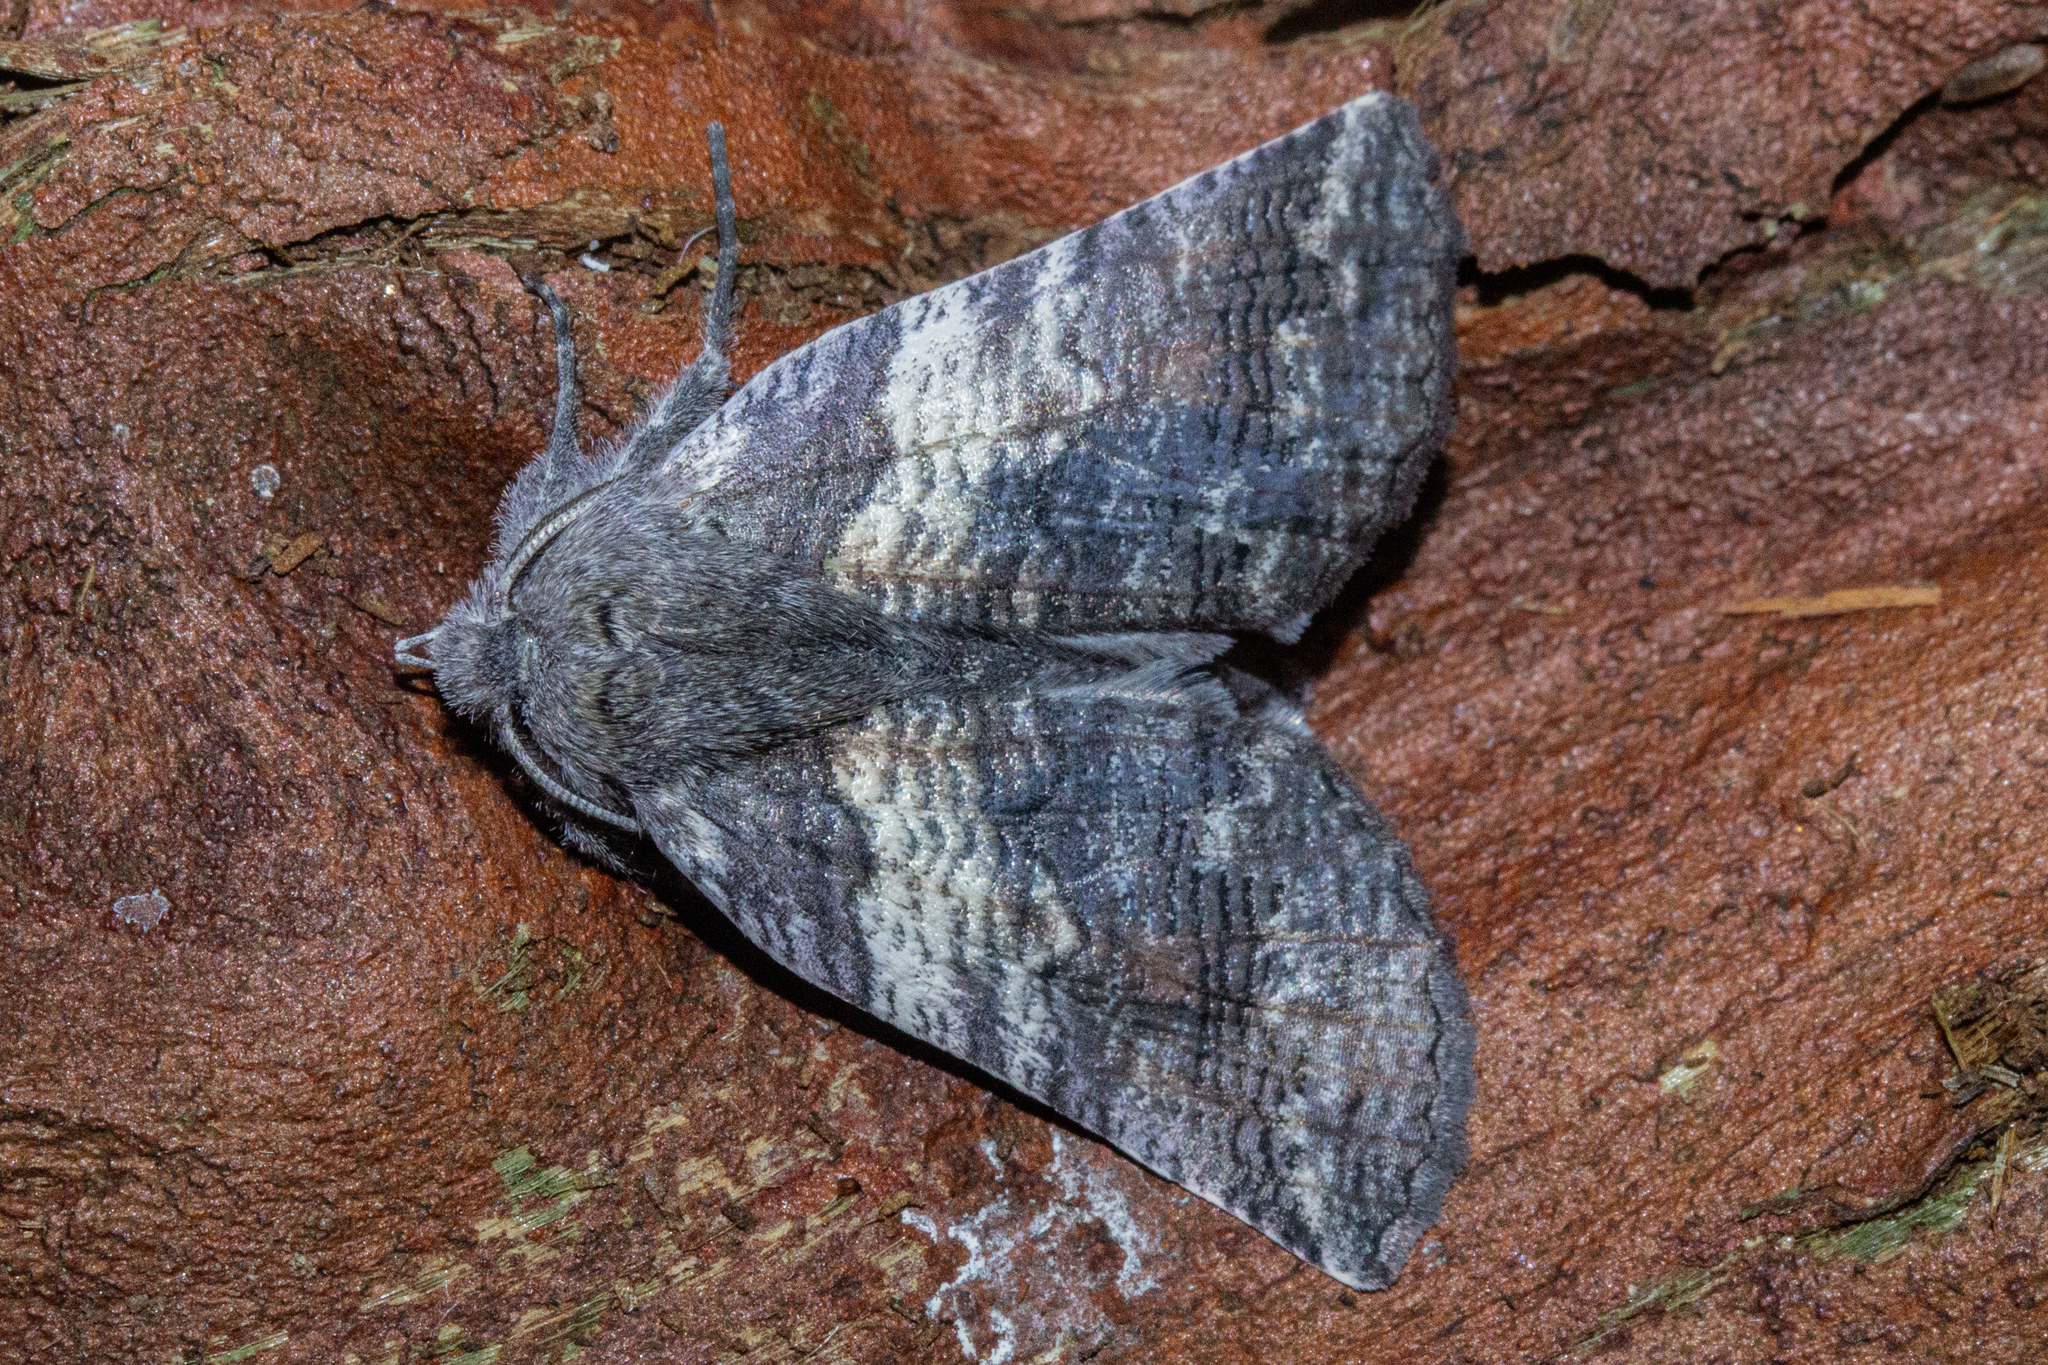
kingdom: Animalia
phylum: Arthropoda
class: Insecta
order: Lepidoptera
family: Geometridae
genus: Declana
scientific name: Declana
